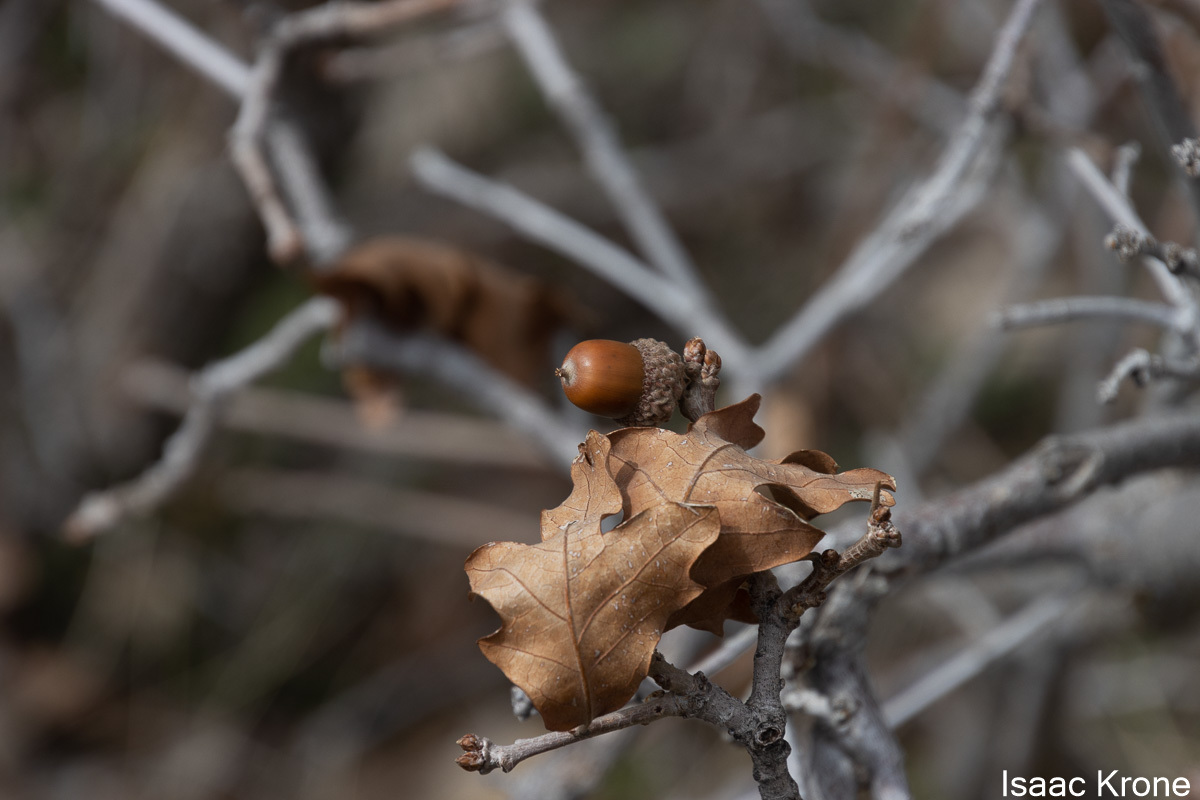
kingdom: Plantae
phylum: Tracheophyta
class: Magnoliopsida
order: Fagales
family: Fagaceae
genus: Quercus
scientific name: Quercus gambelii
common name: Gambel oak
